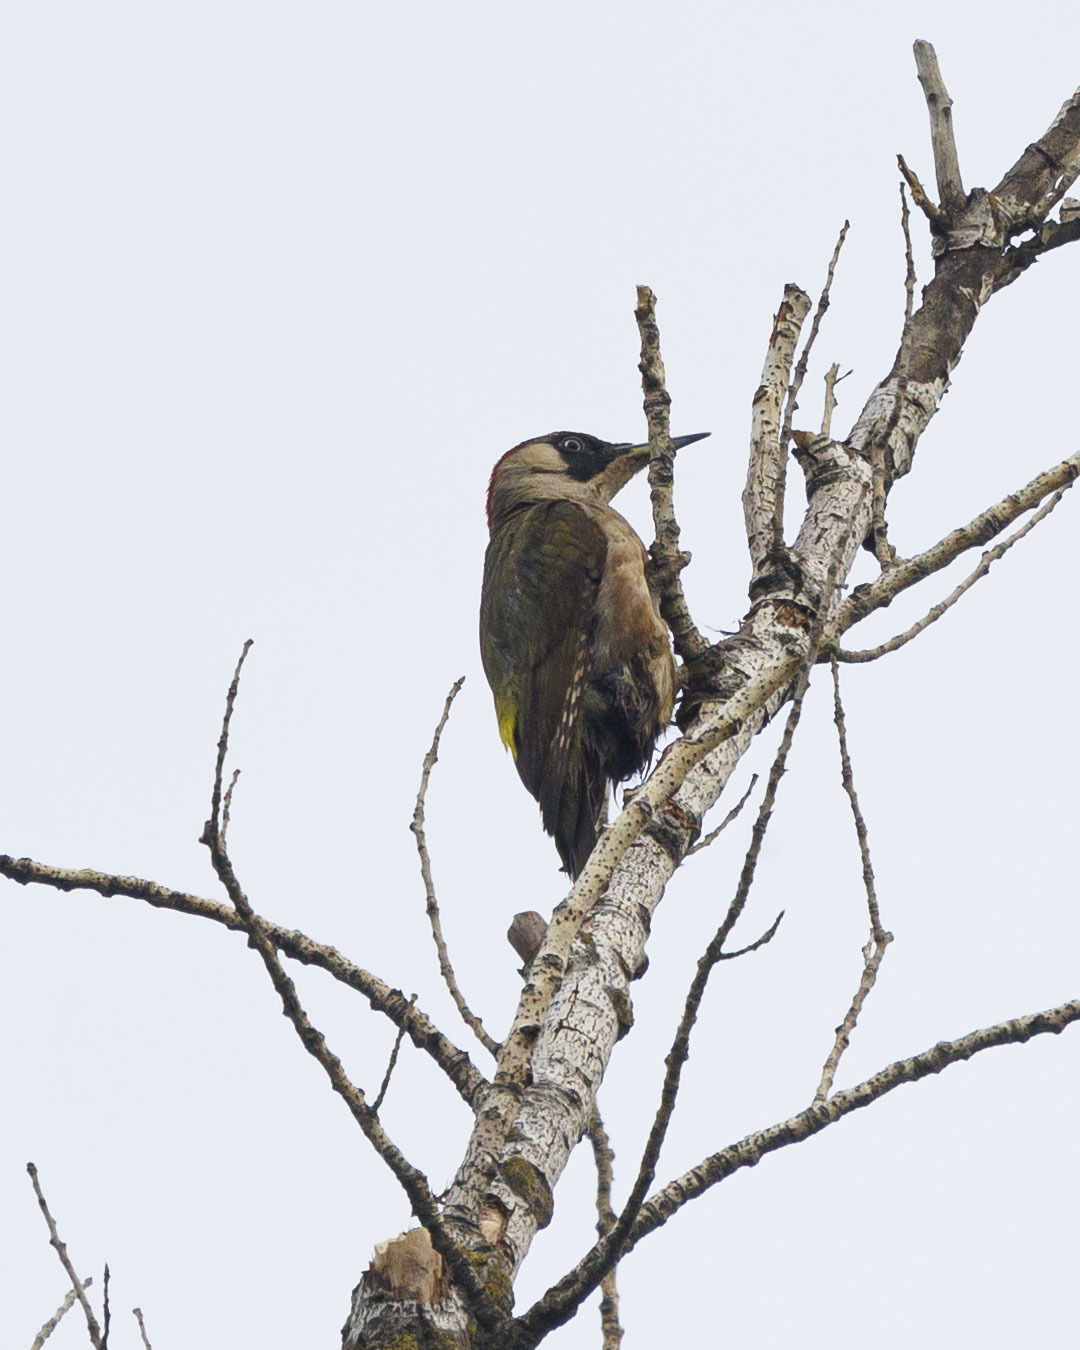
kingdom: Animalia
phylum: Chordata
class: Aves
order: Piciformes
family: Picidae
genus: Picus
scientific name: Picus viridis
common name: European green woodpecker
